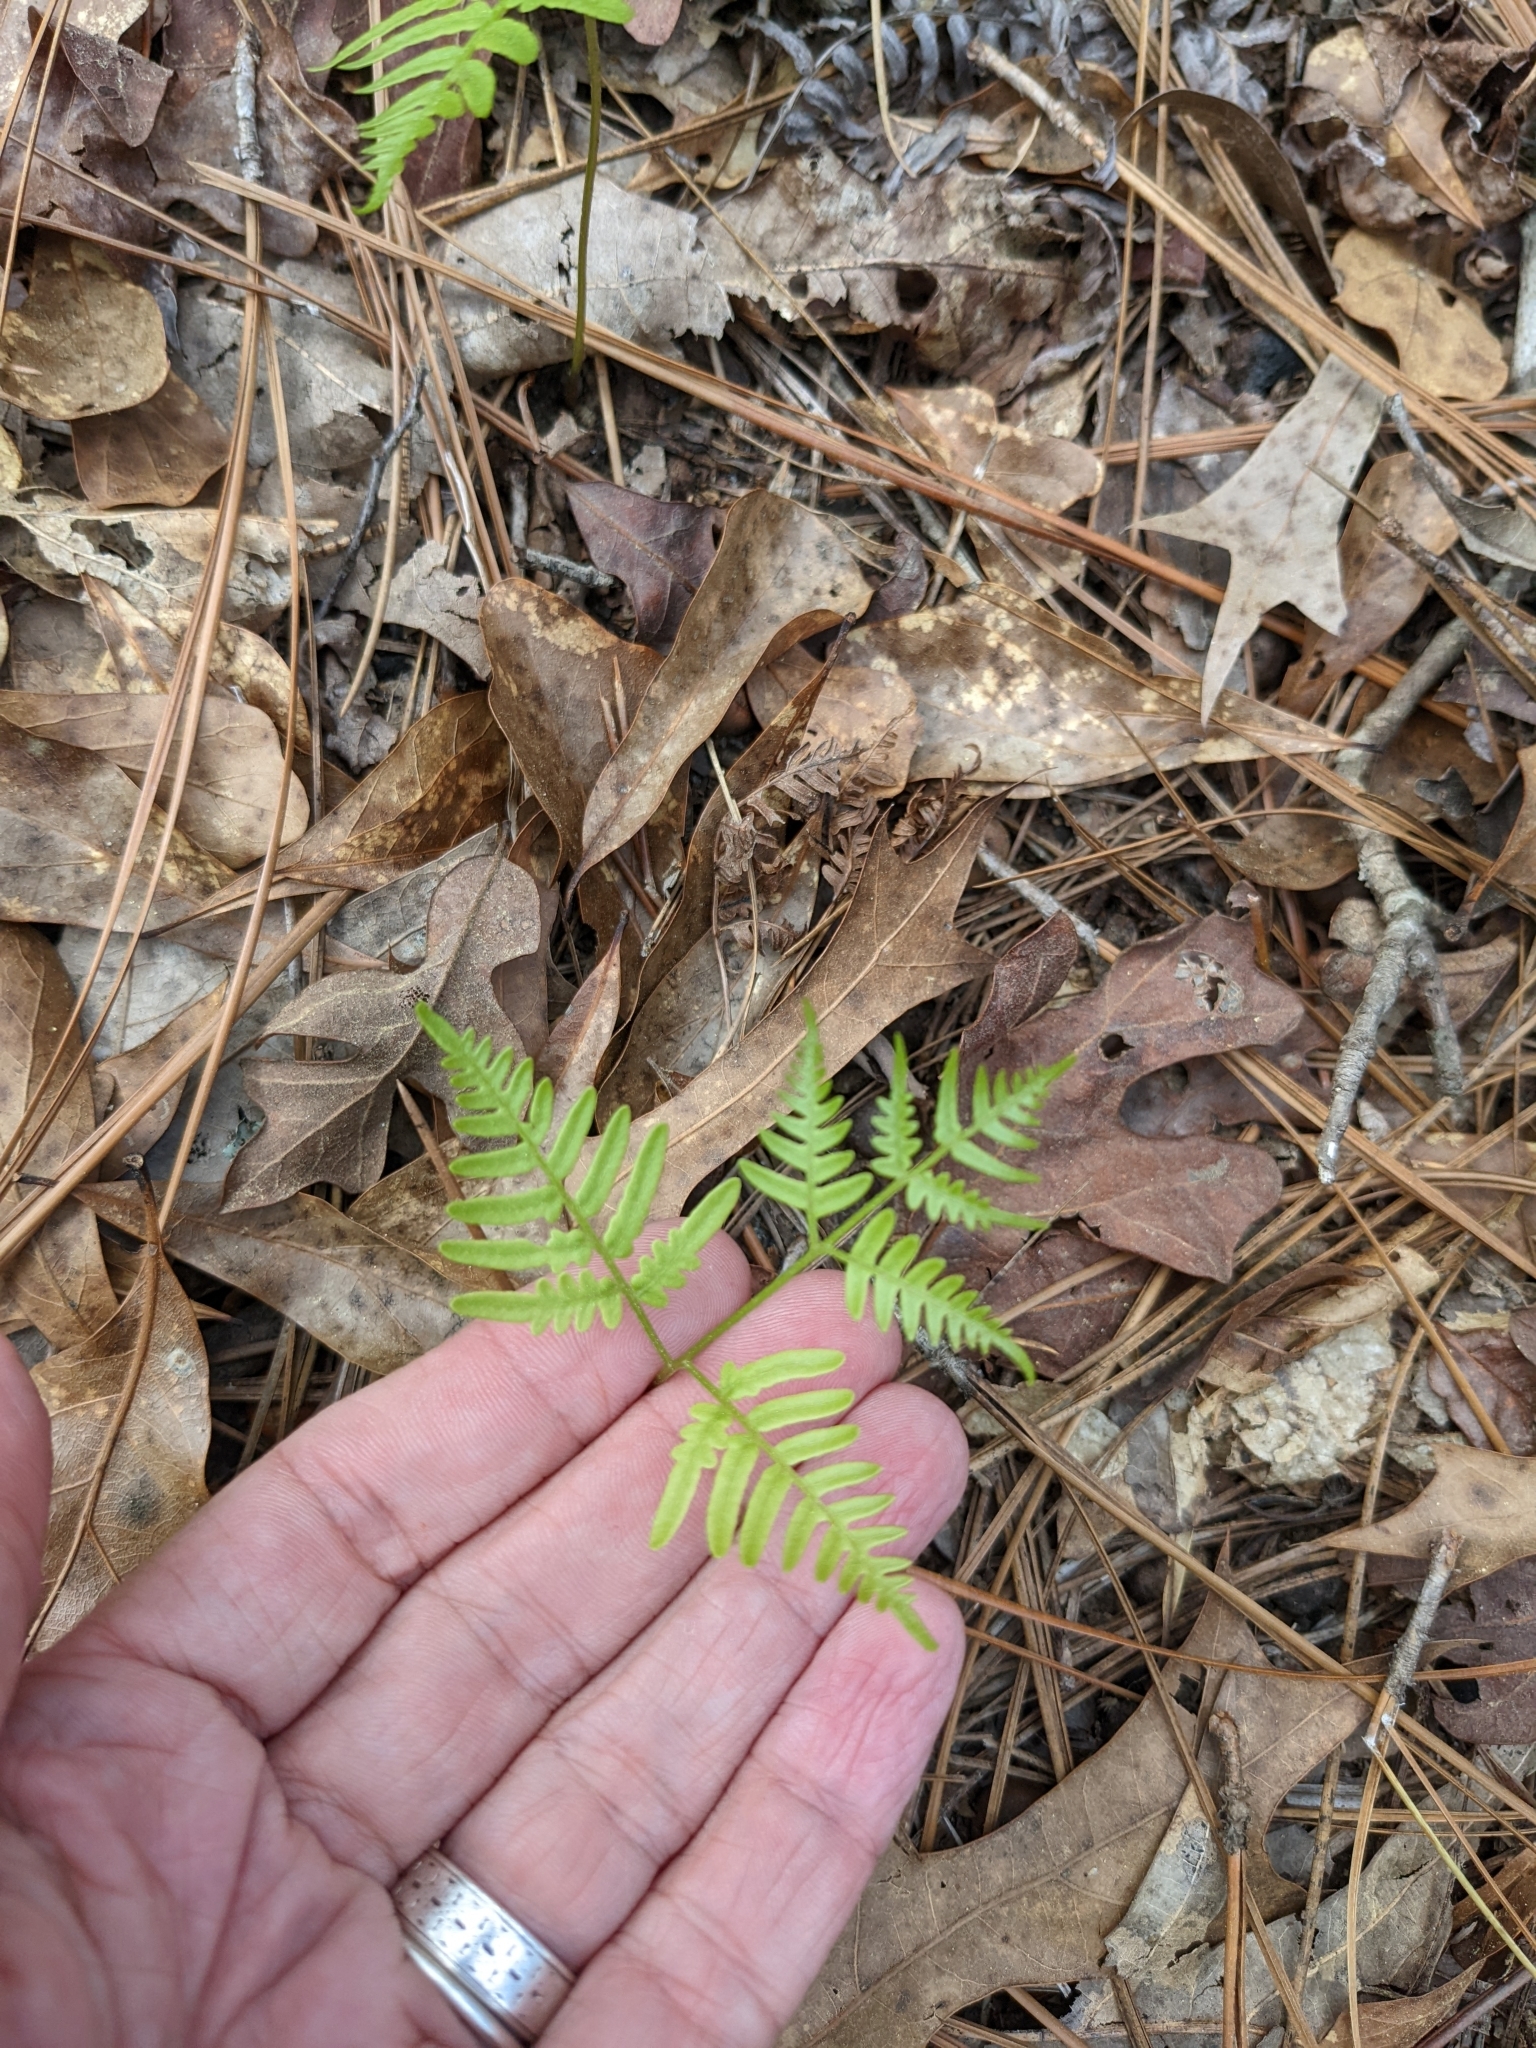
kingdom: Plantae
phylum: Tracheophyta
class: Polypodiopsida
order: Polypodiales
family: Dennstaedtiaceae
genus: Pteridium
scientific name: Pteridium aquilinum
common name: Bracken
